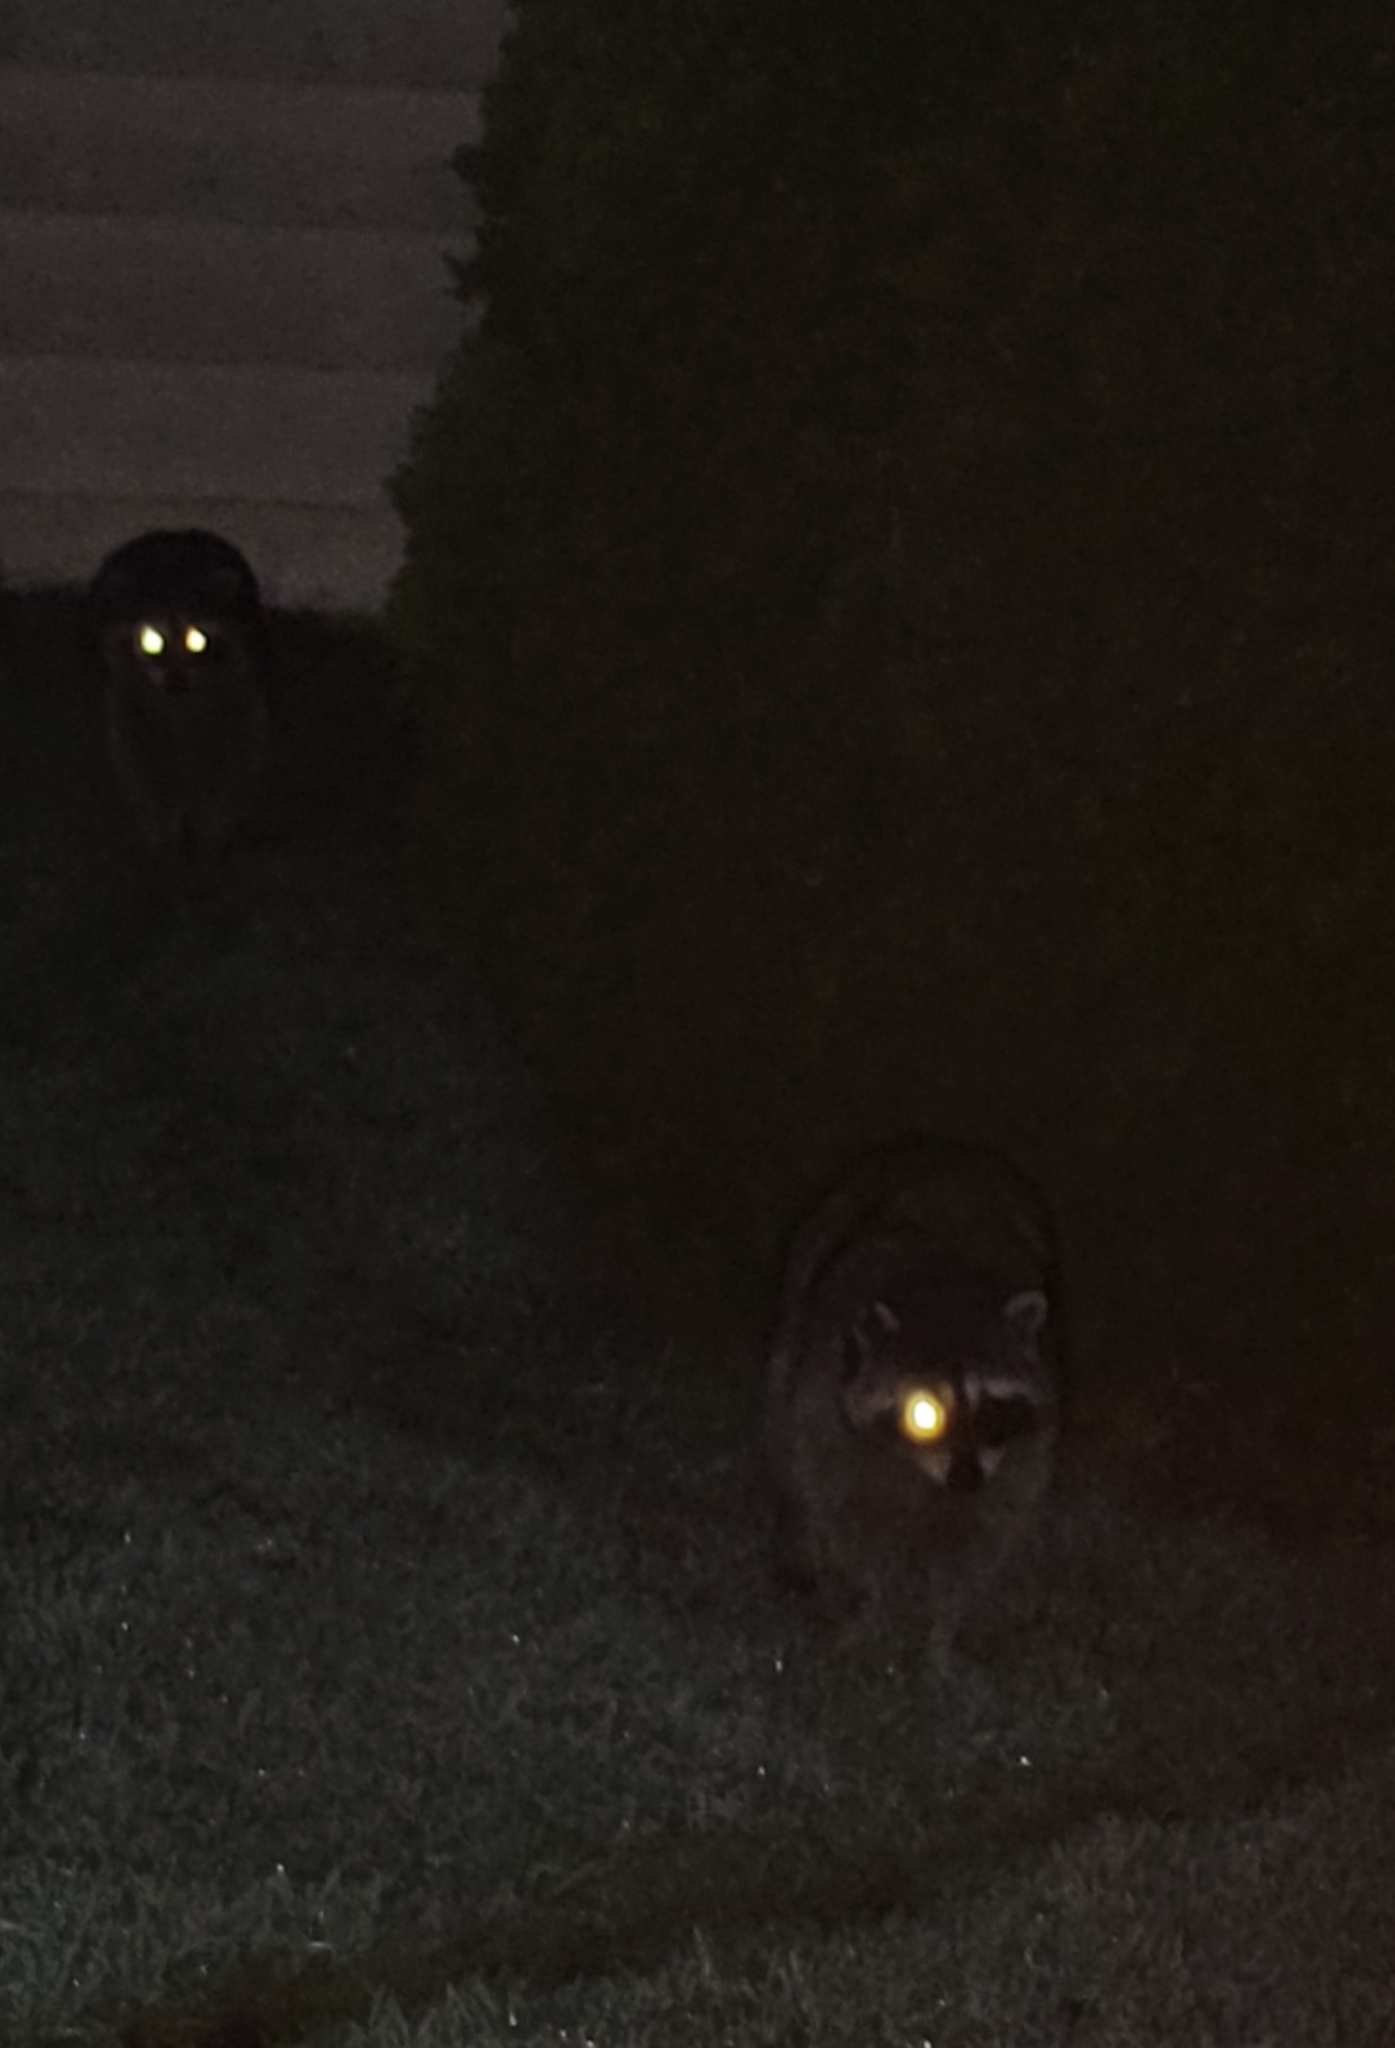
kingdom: Animalia
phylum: Chordata
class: Mammalia
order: Carnivora
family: Procyonidae
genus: Procyon
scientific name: Procyon lotor
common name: Raccoon
